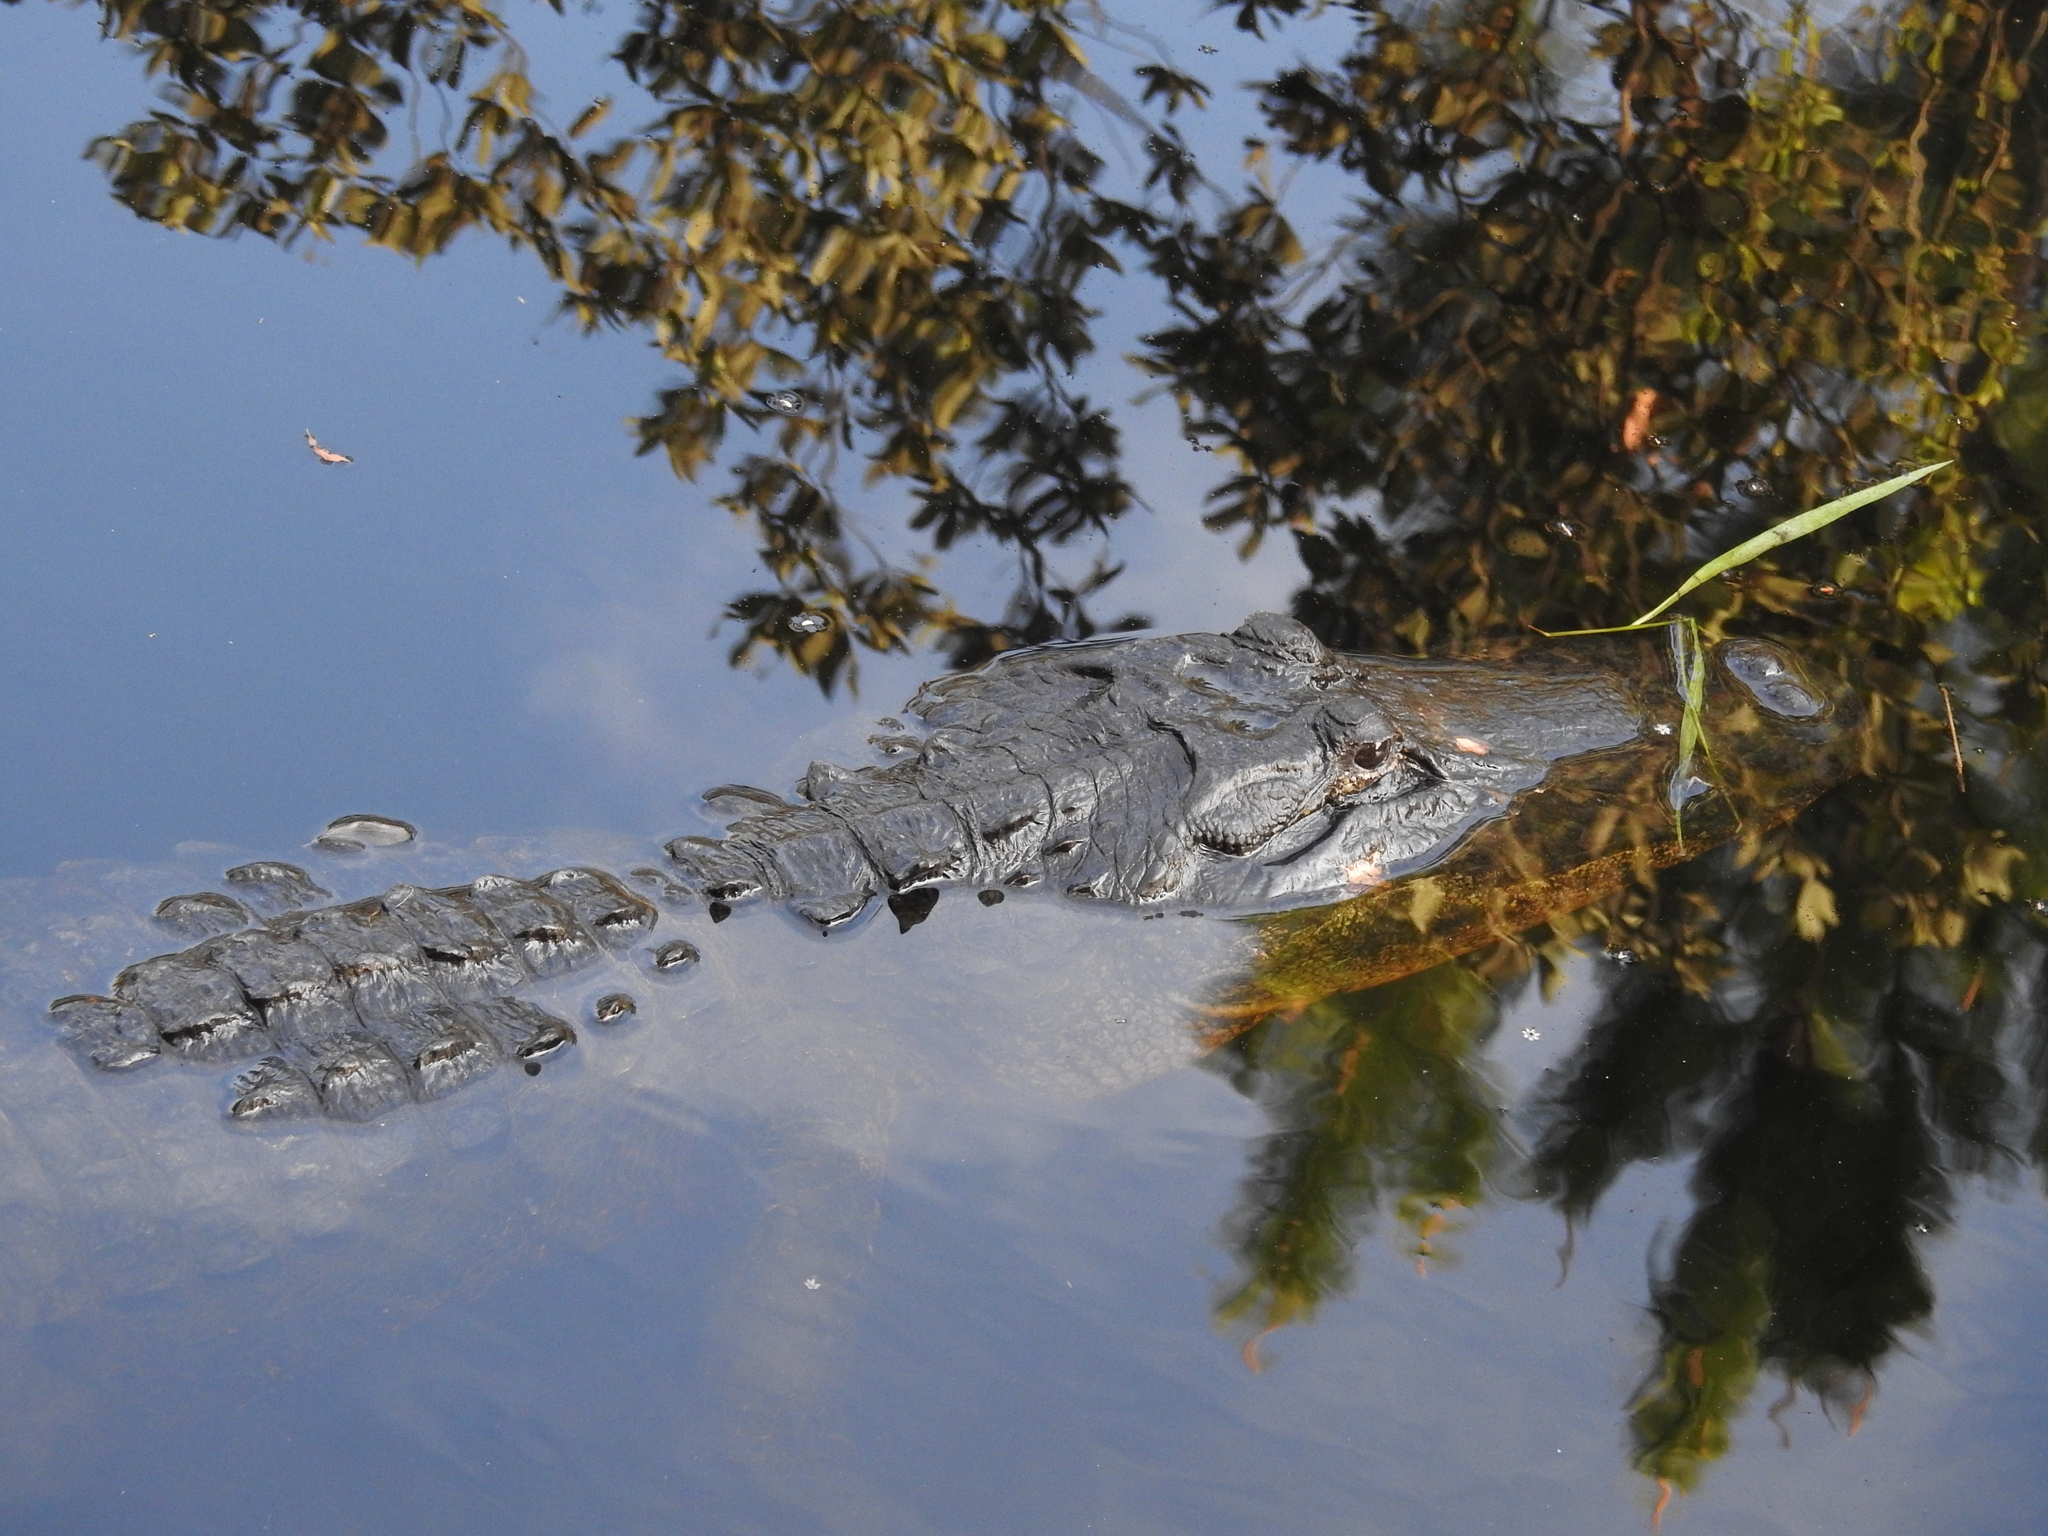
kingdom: Animalia
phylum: Chordata
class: Crocodylia
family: Alligatoridae
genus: Alligator
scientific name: Alligator mississippiensis
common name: American alligator
